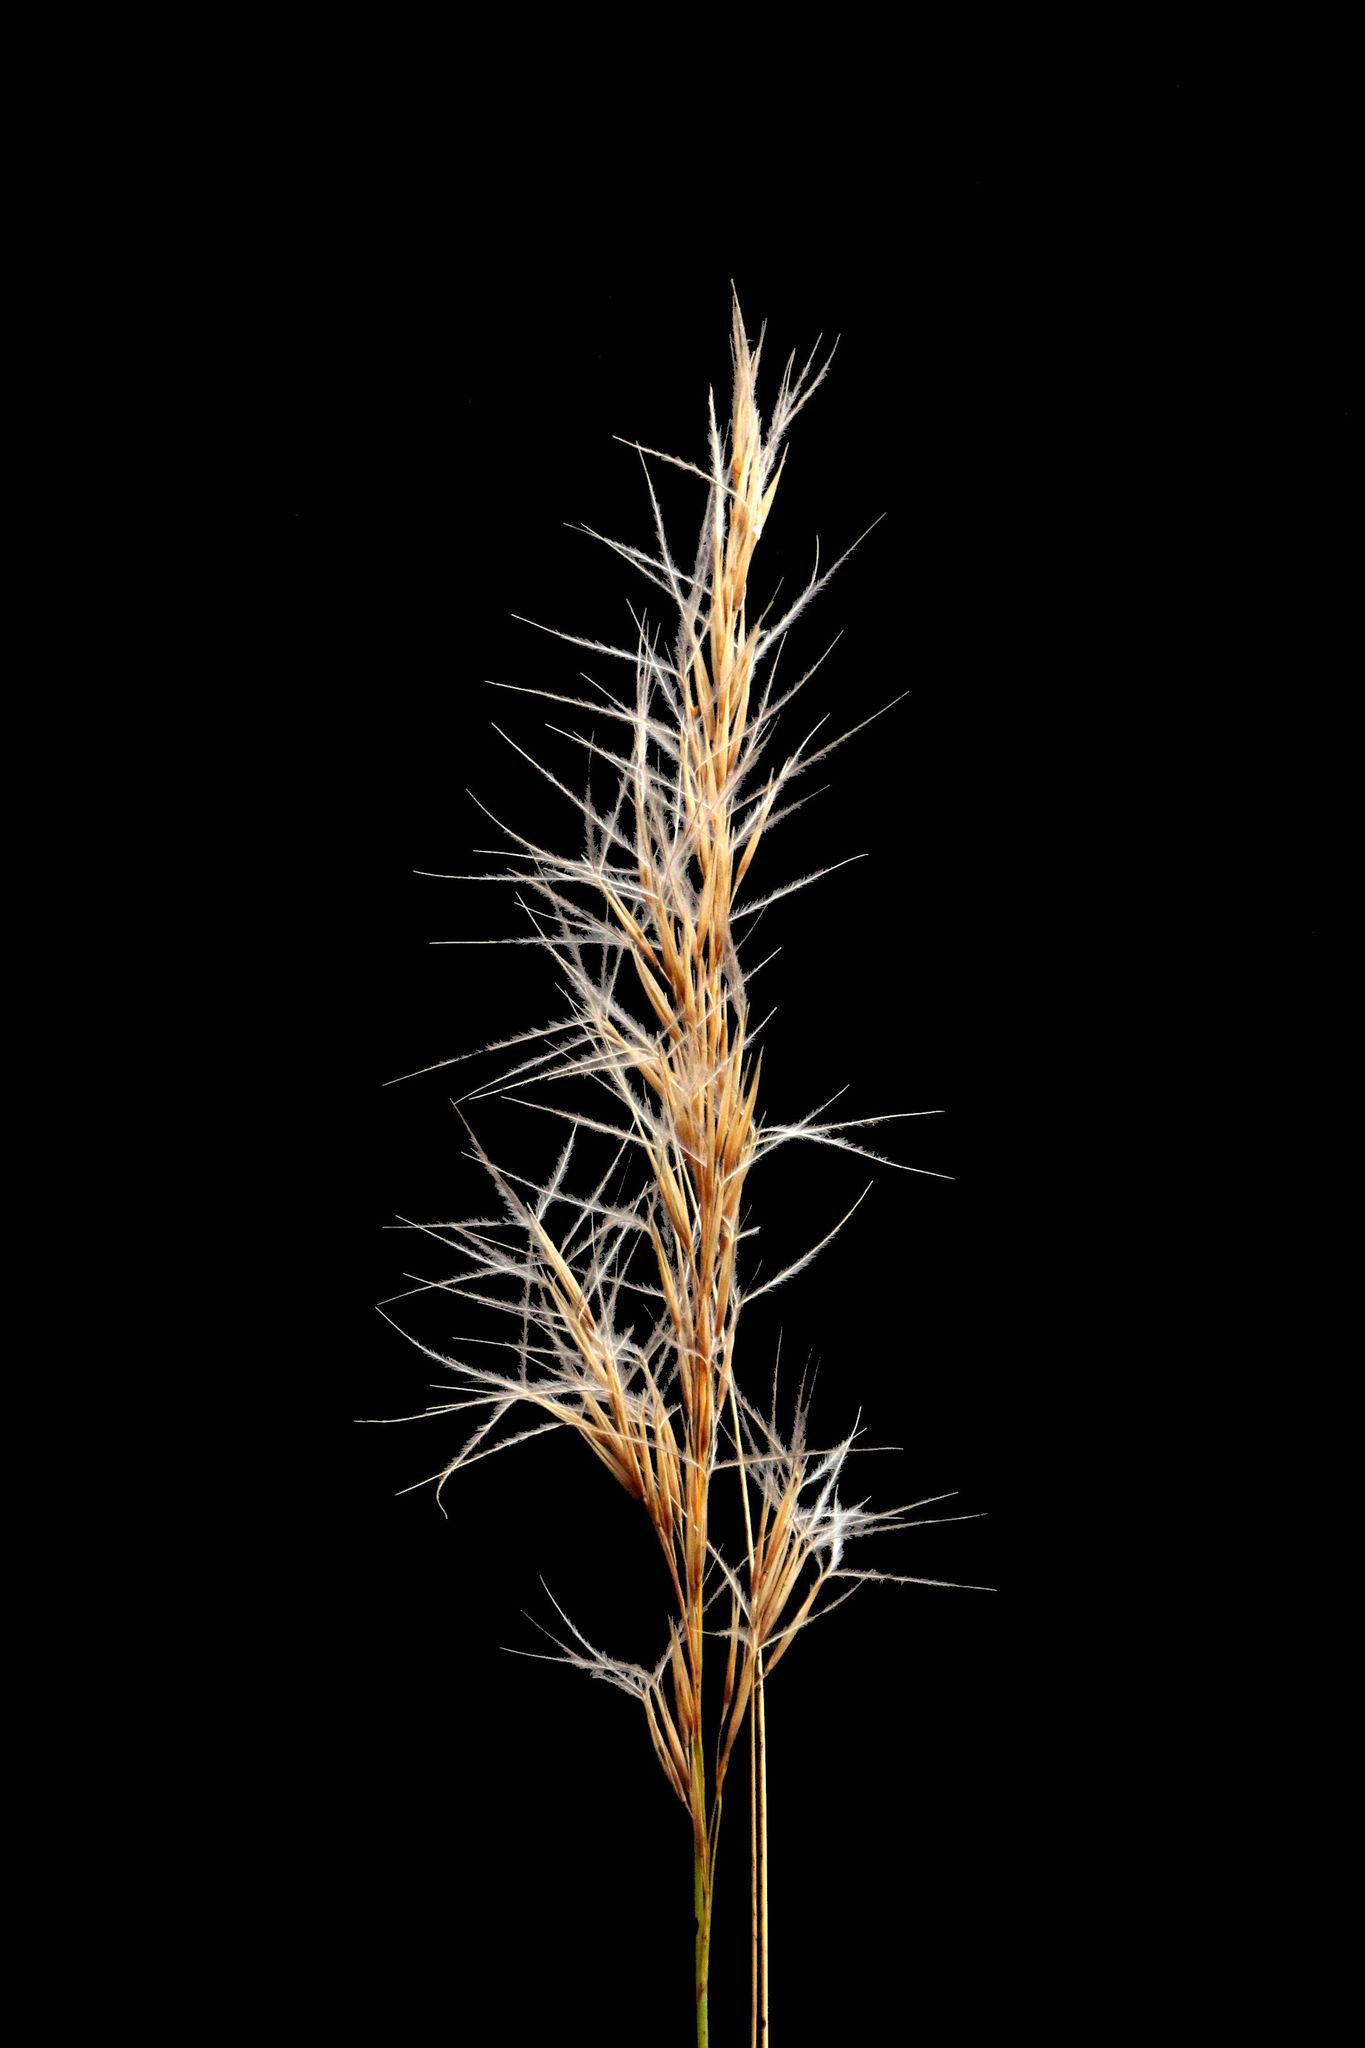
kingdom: Plantae
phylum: Tracheophyta
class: Liliopsida
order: Poales
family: Poaceae
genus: Stipagrostis
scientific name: Stipagrostis zeyheri
